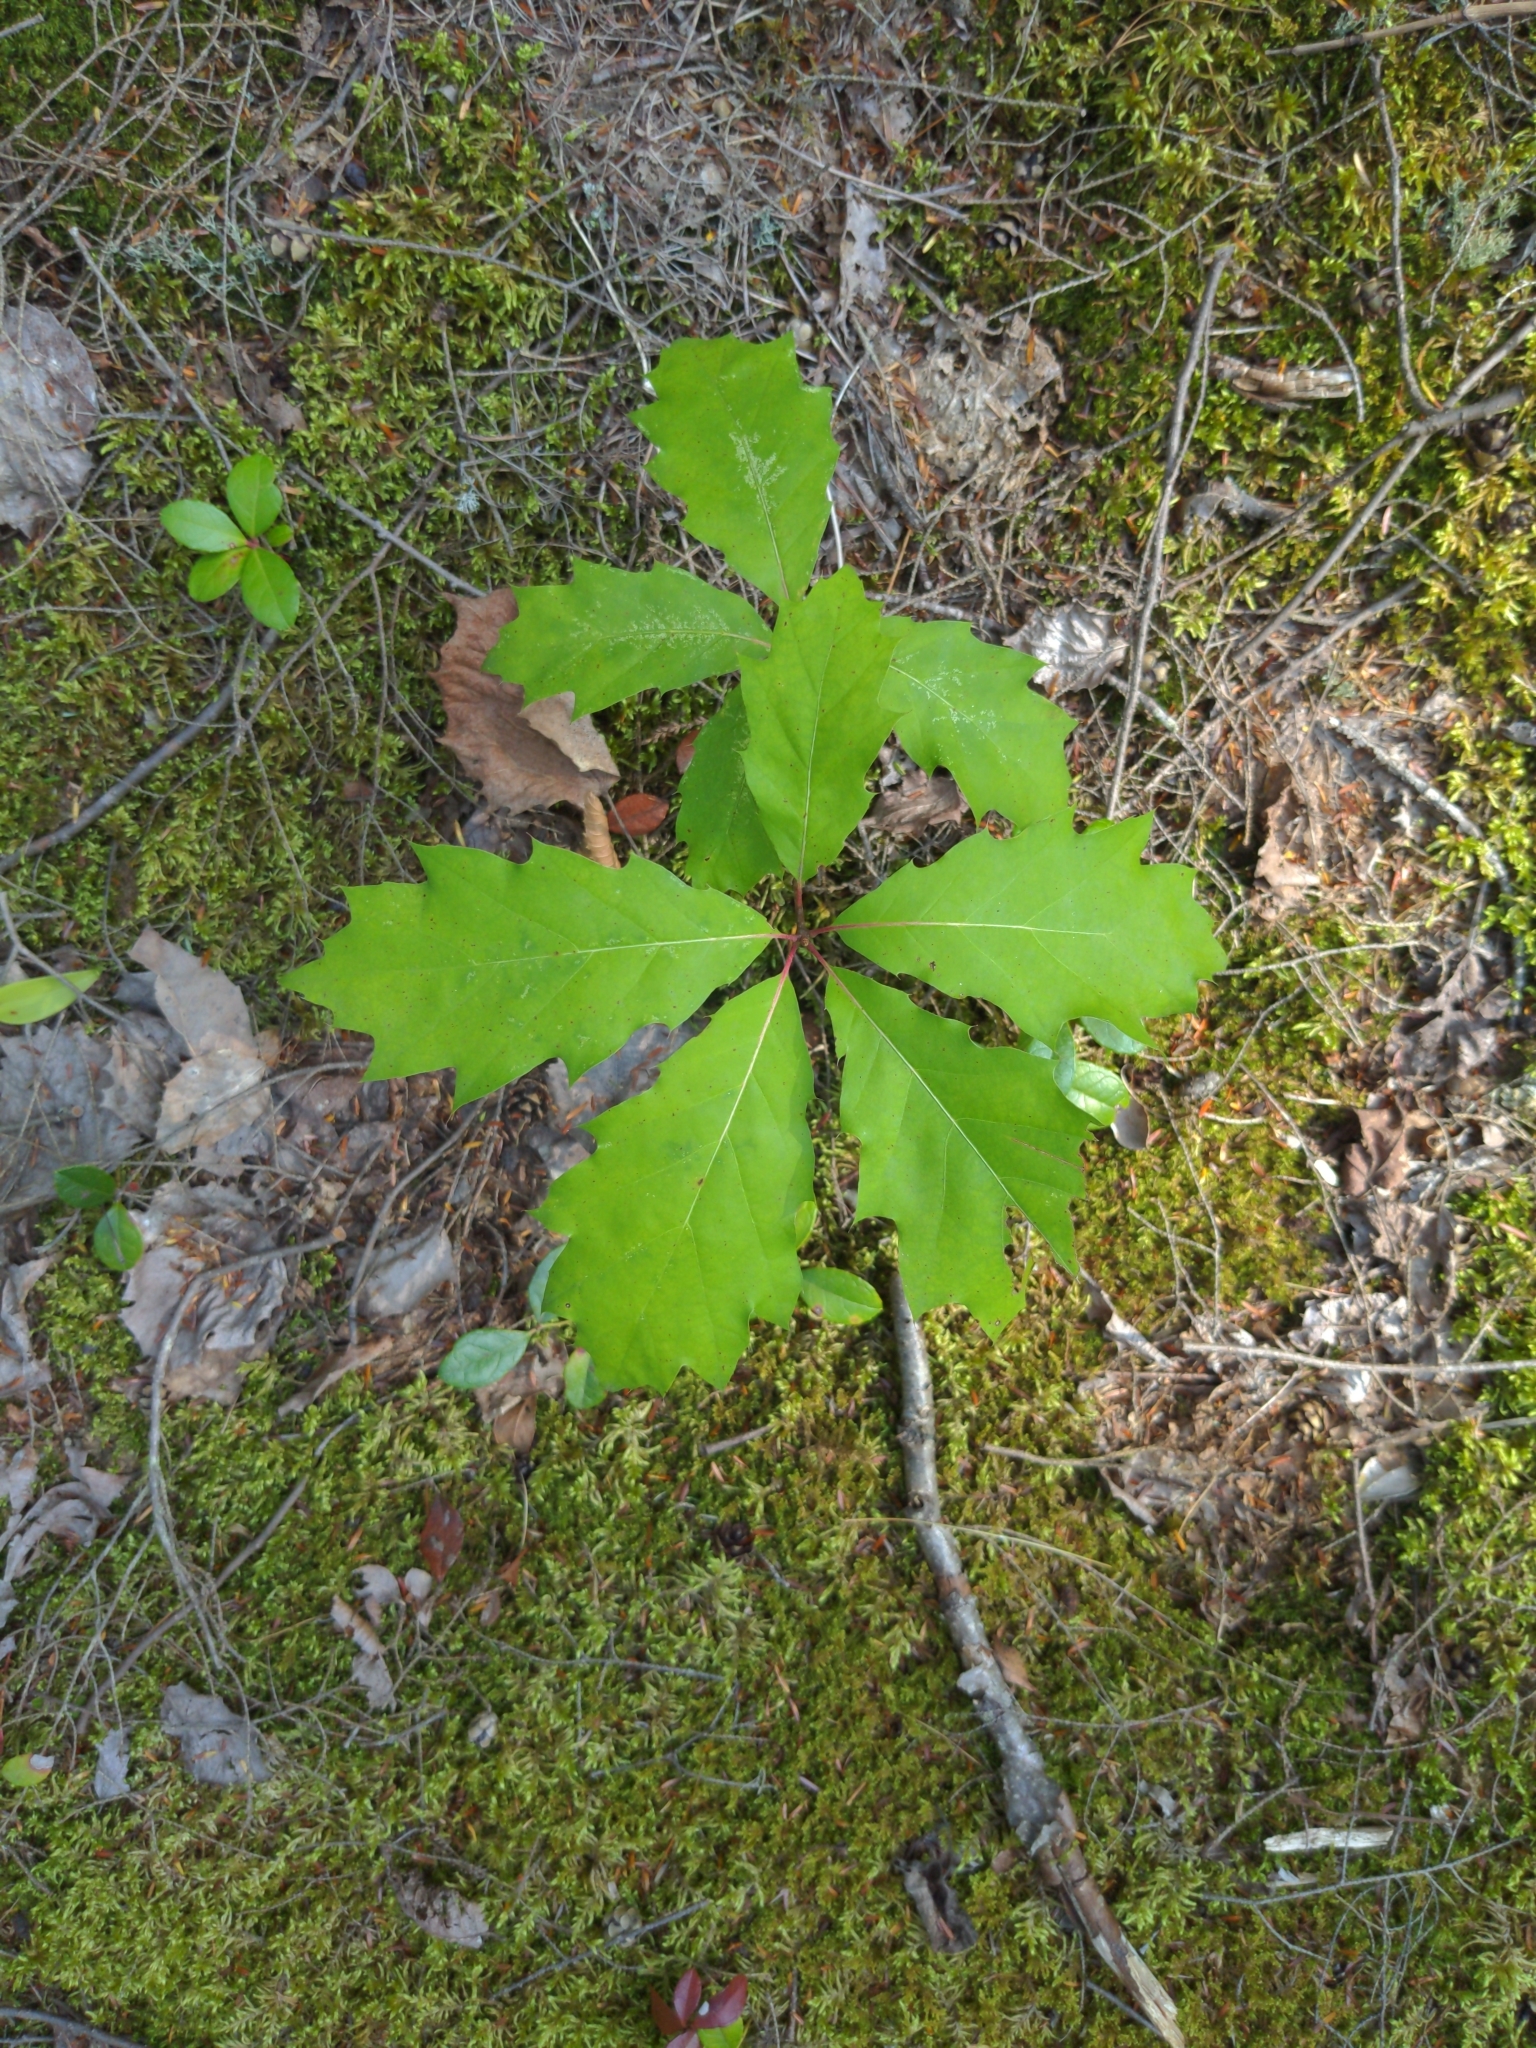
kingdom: Plantae
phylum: Tracheophyta
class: Magnoliopsida
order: Fagales
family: Fagaceae
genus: Quercus
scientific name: Quercus rubra
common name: Red oak
